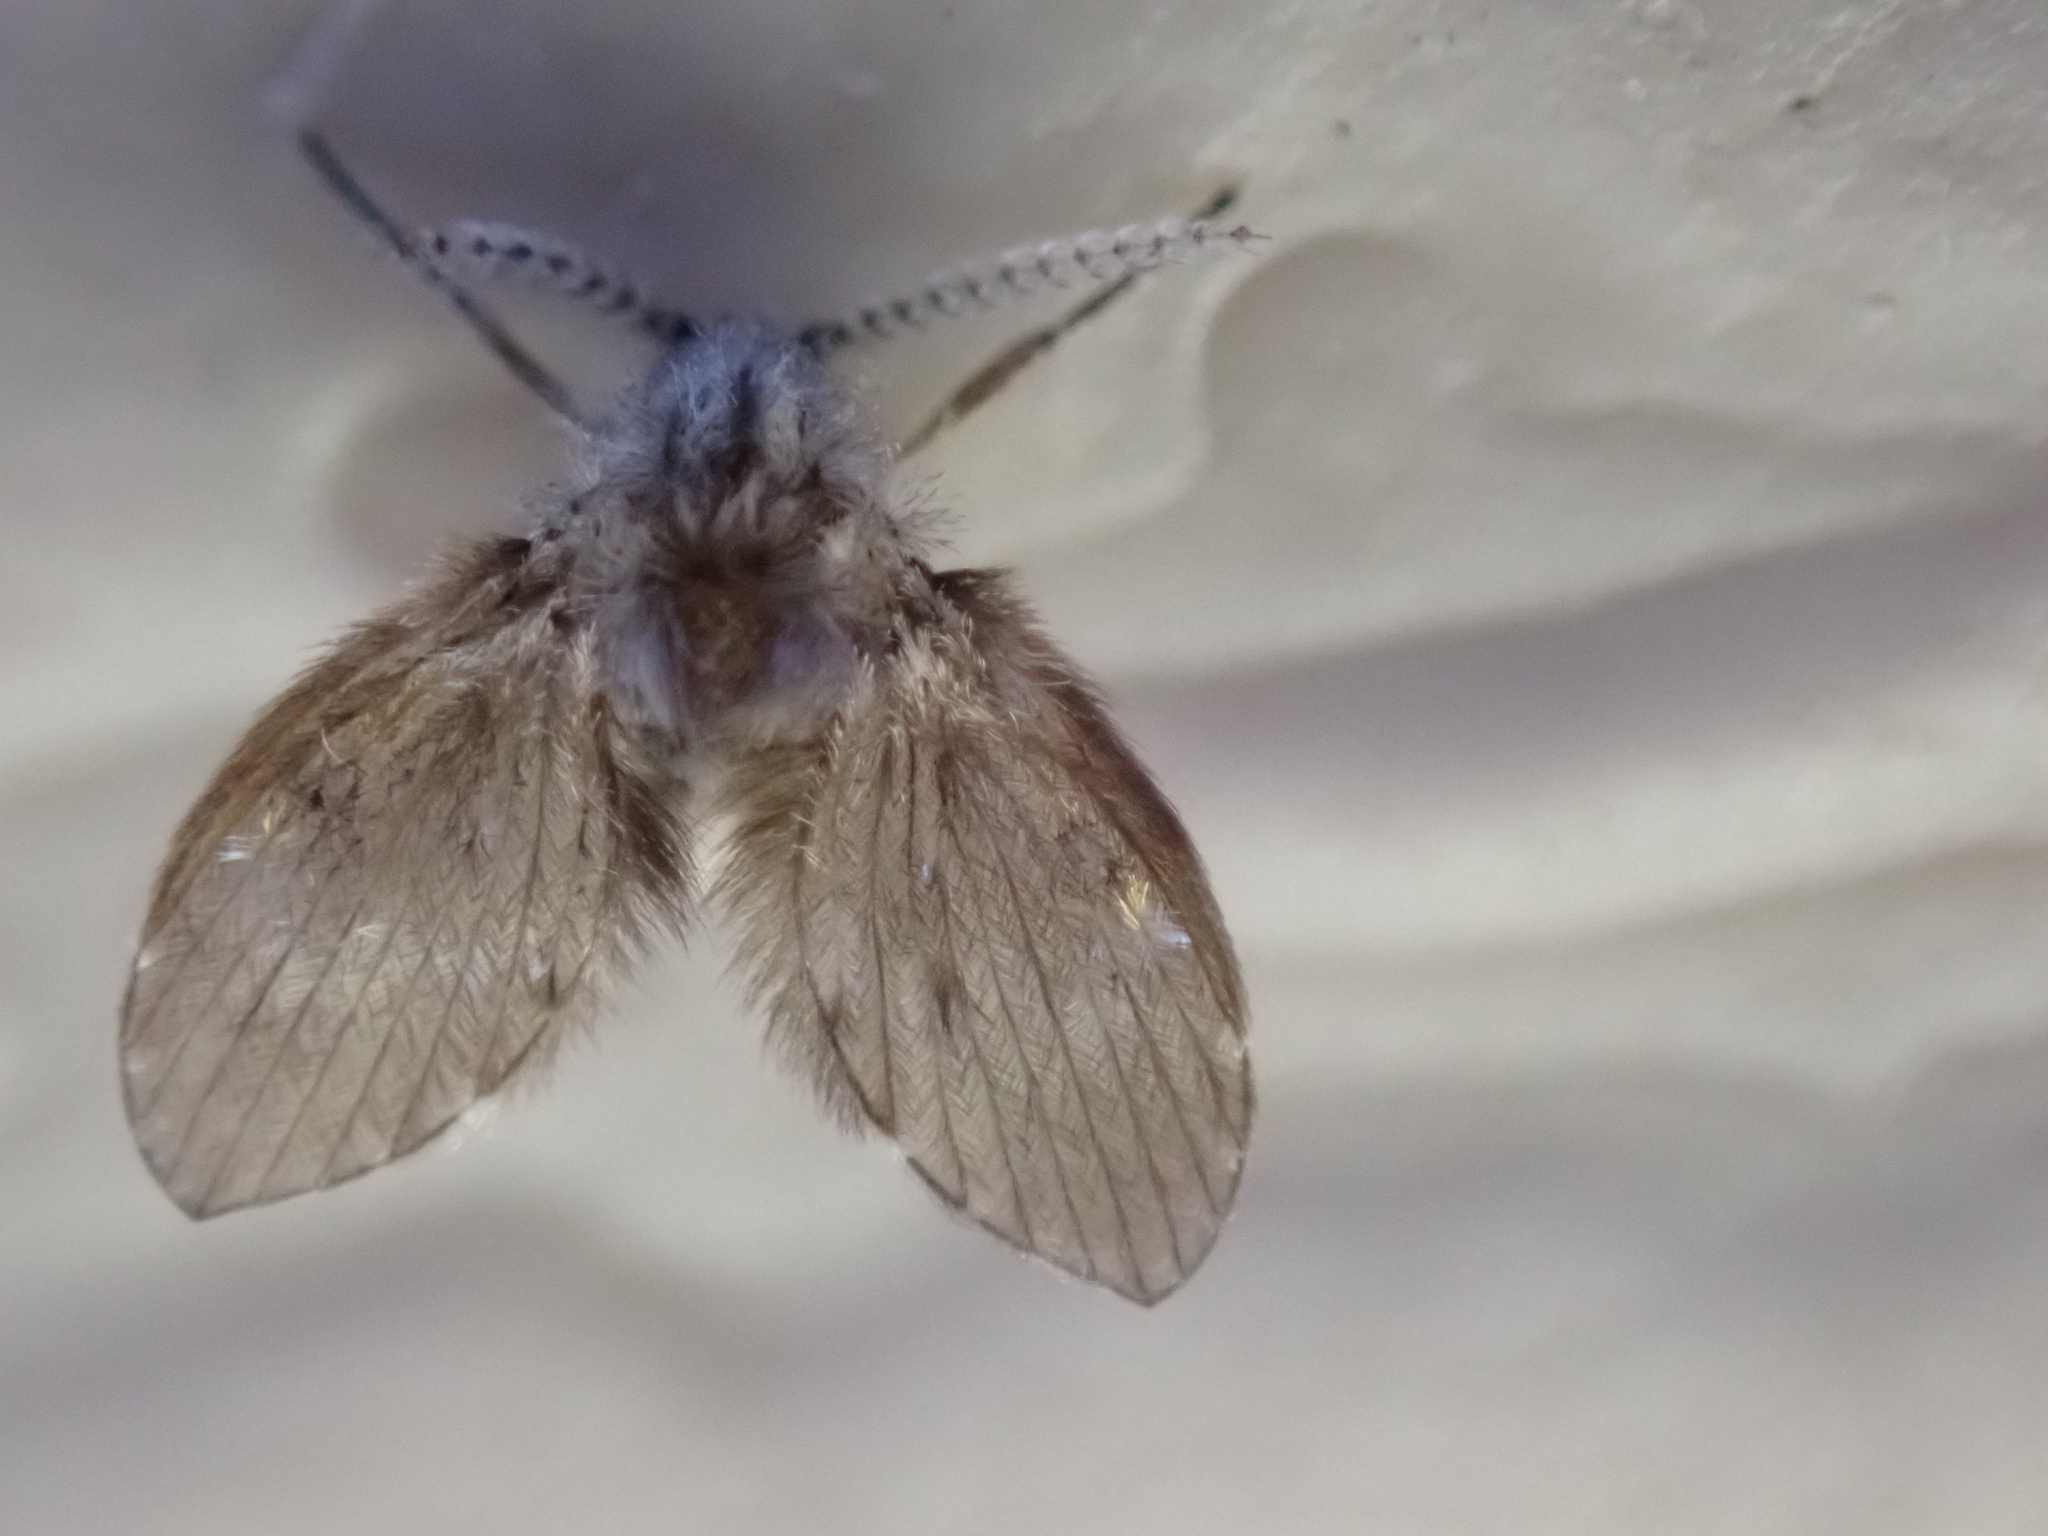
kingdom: Animalia
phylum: Arthropoda
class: Insecta
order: Diptera
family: Psychodidae
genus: Clogmia
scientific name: Clogmia albipunctatus
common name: White-spotted moth fly
